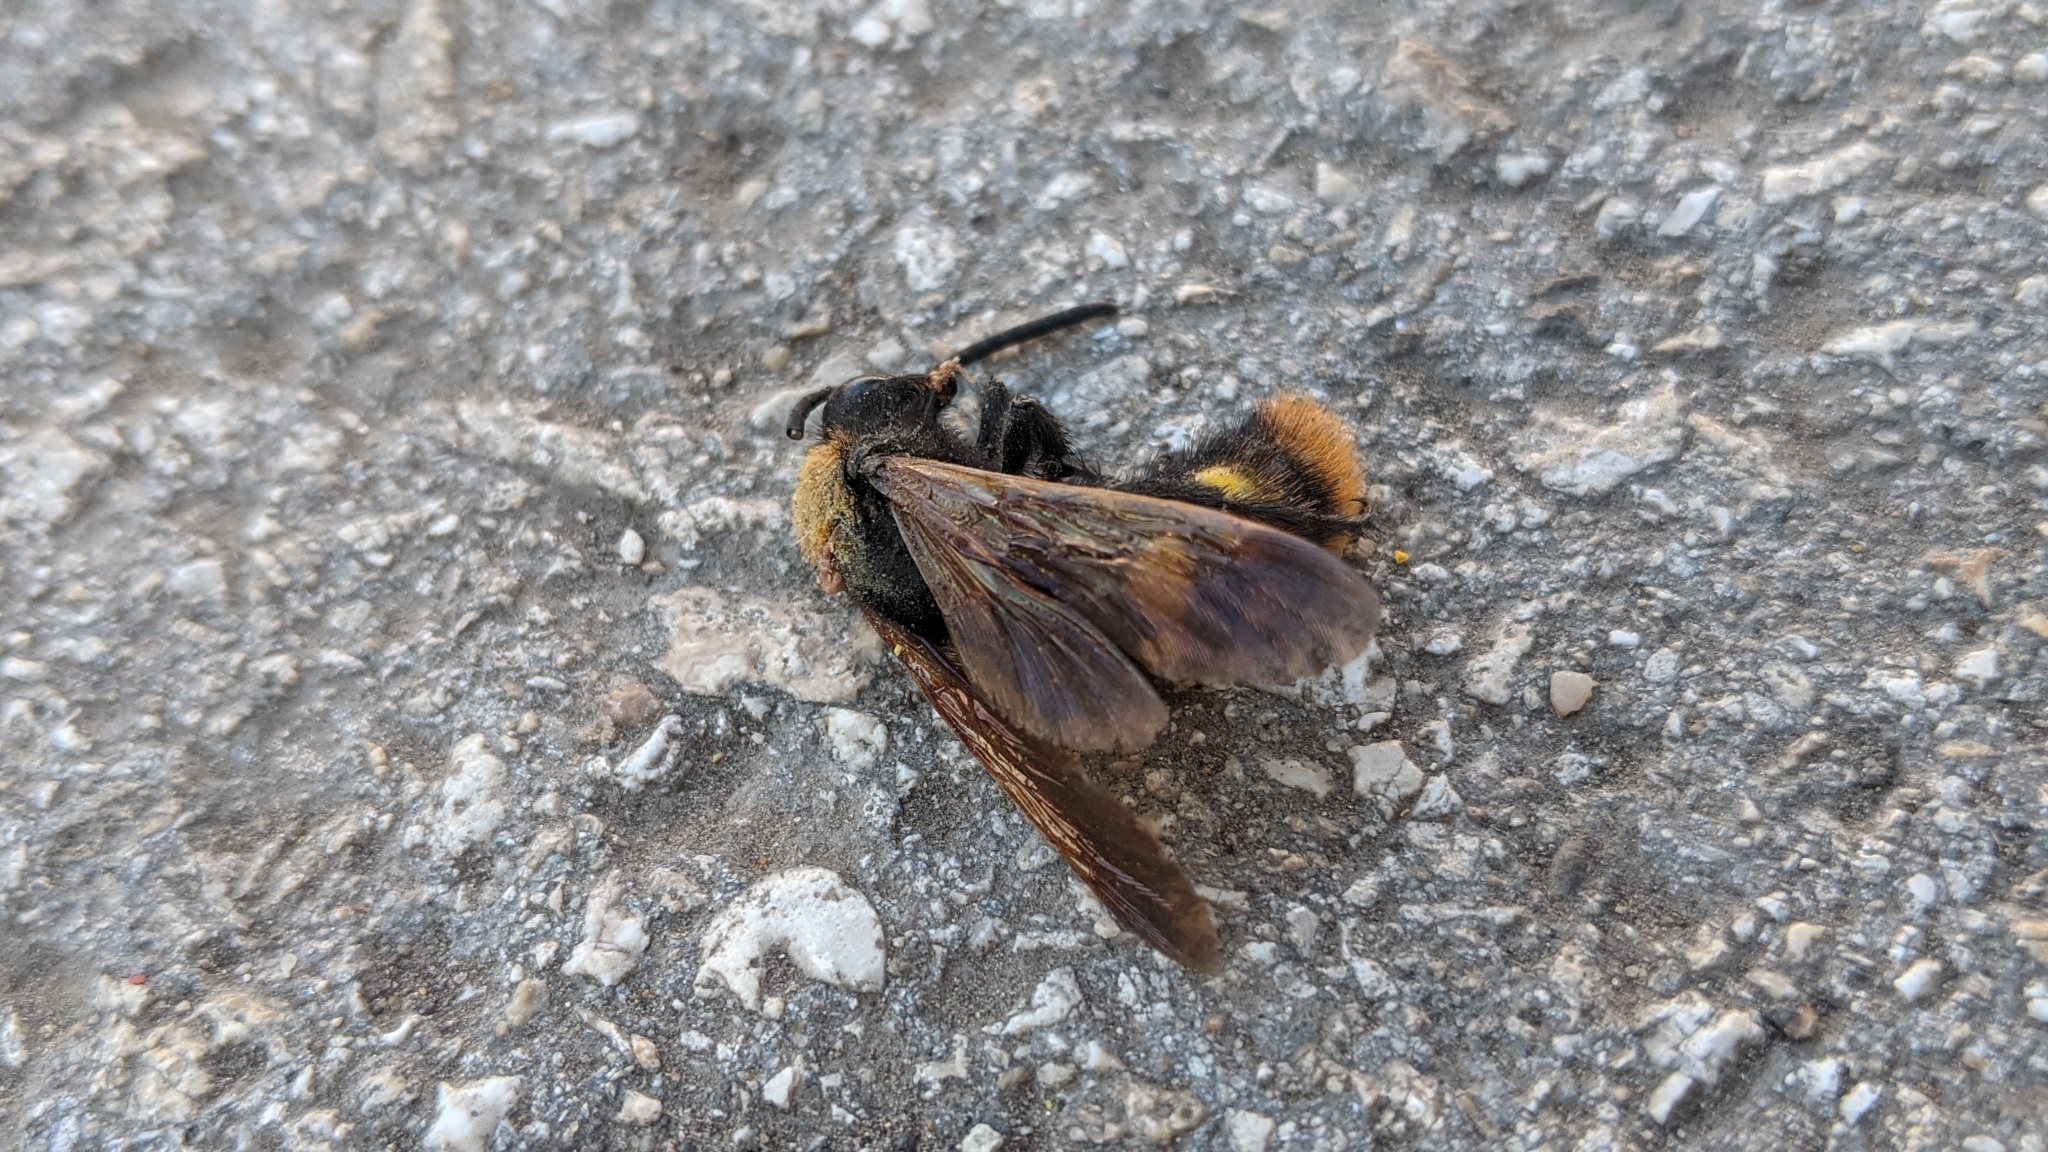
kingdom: Animalia
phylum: Arthropoda
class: Insecta
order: Hymenoptera
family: Scoliidae
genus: Megascolia
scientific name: Megascolia maculata
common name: Mammoth wasp
